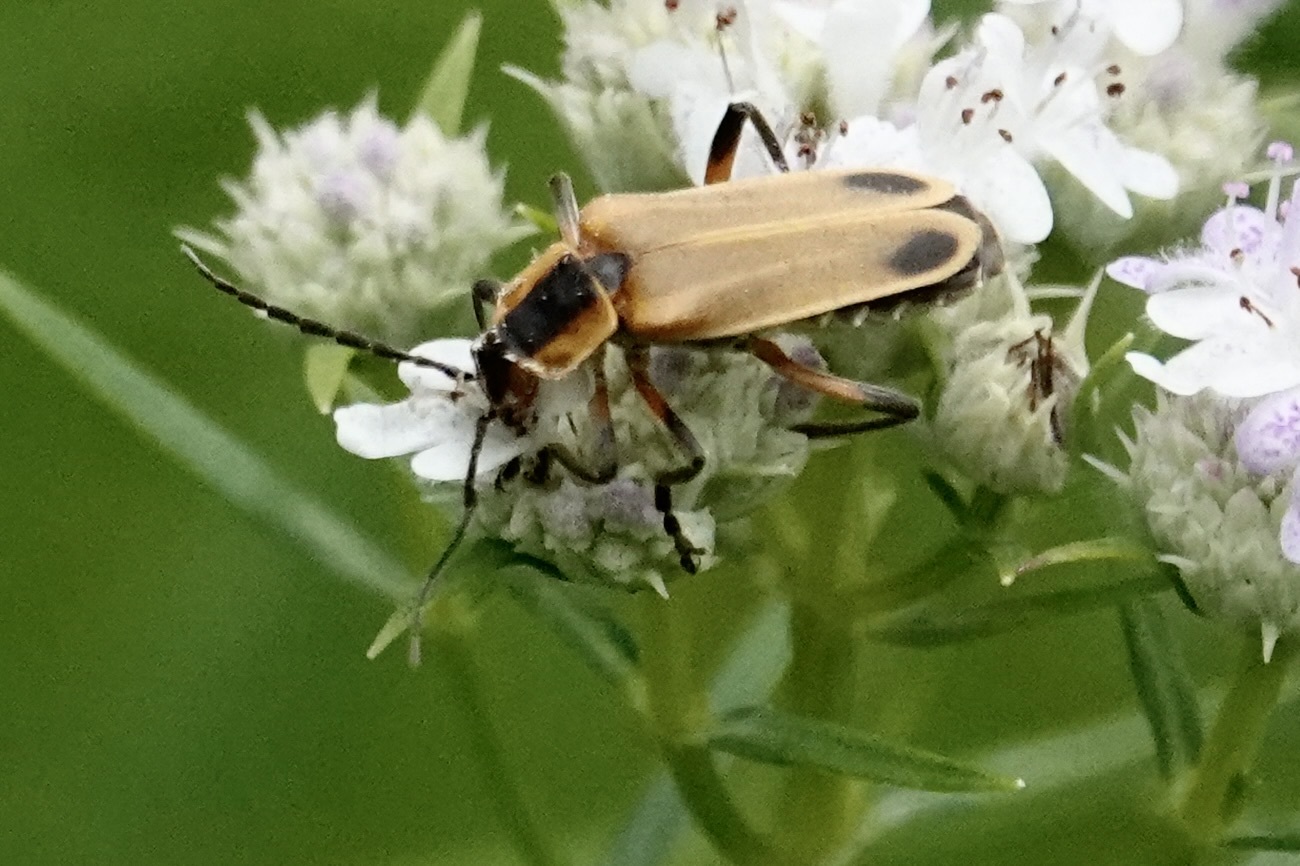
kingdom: Animalia
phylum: Arthropoda
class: Insecta
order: Coleoptera
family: Cantharidae
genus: Chauliognathus
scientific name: Chauliognathus marginatus
